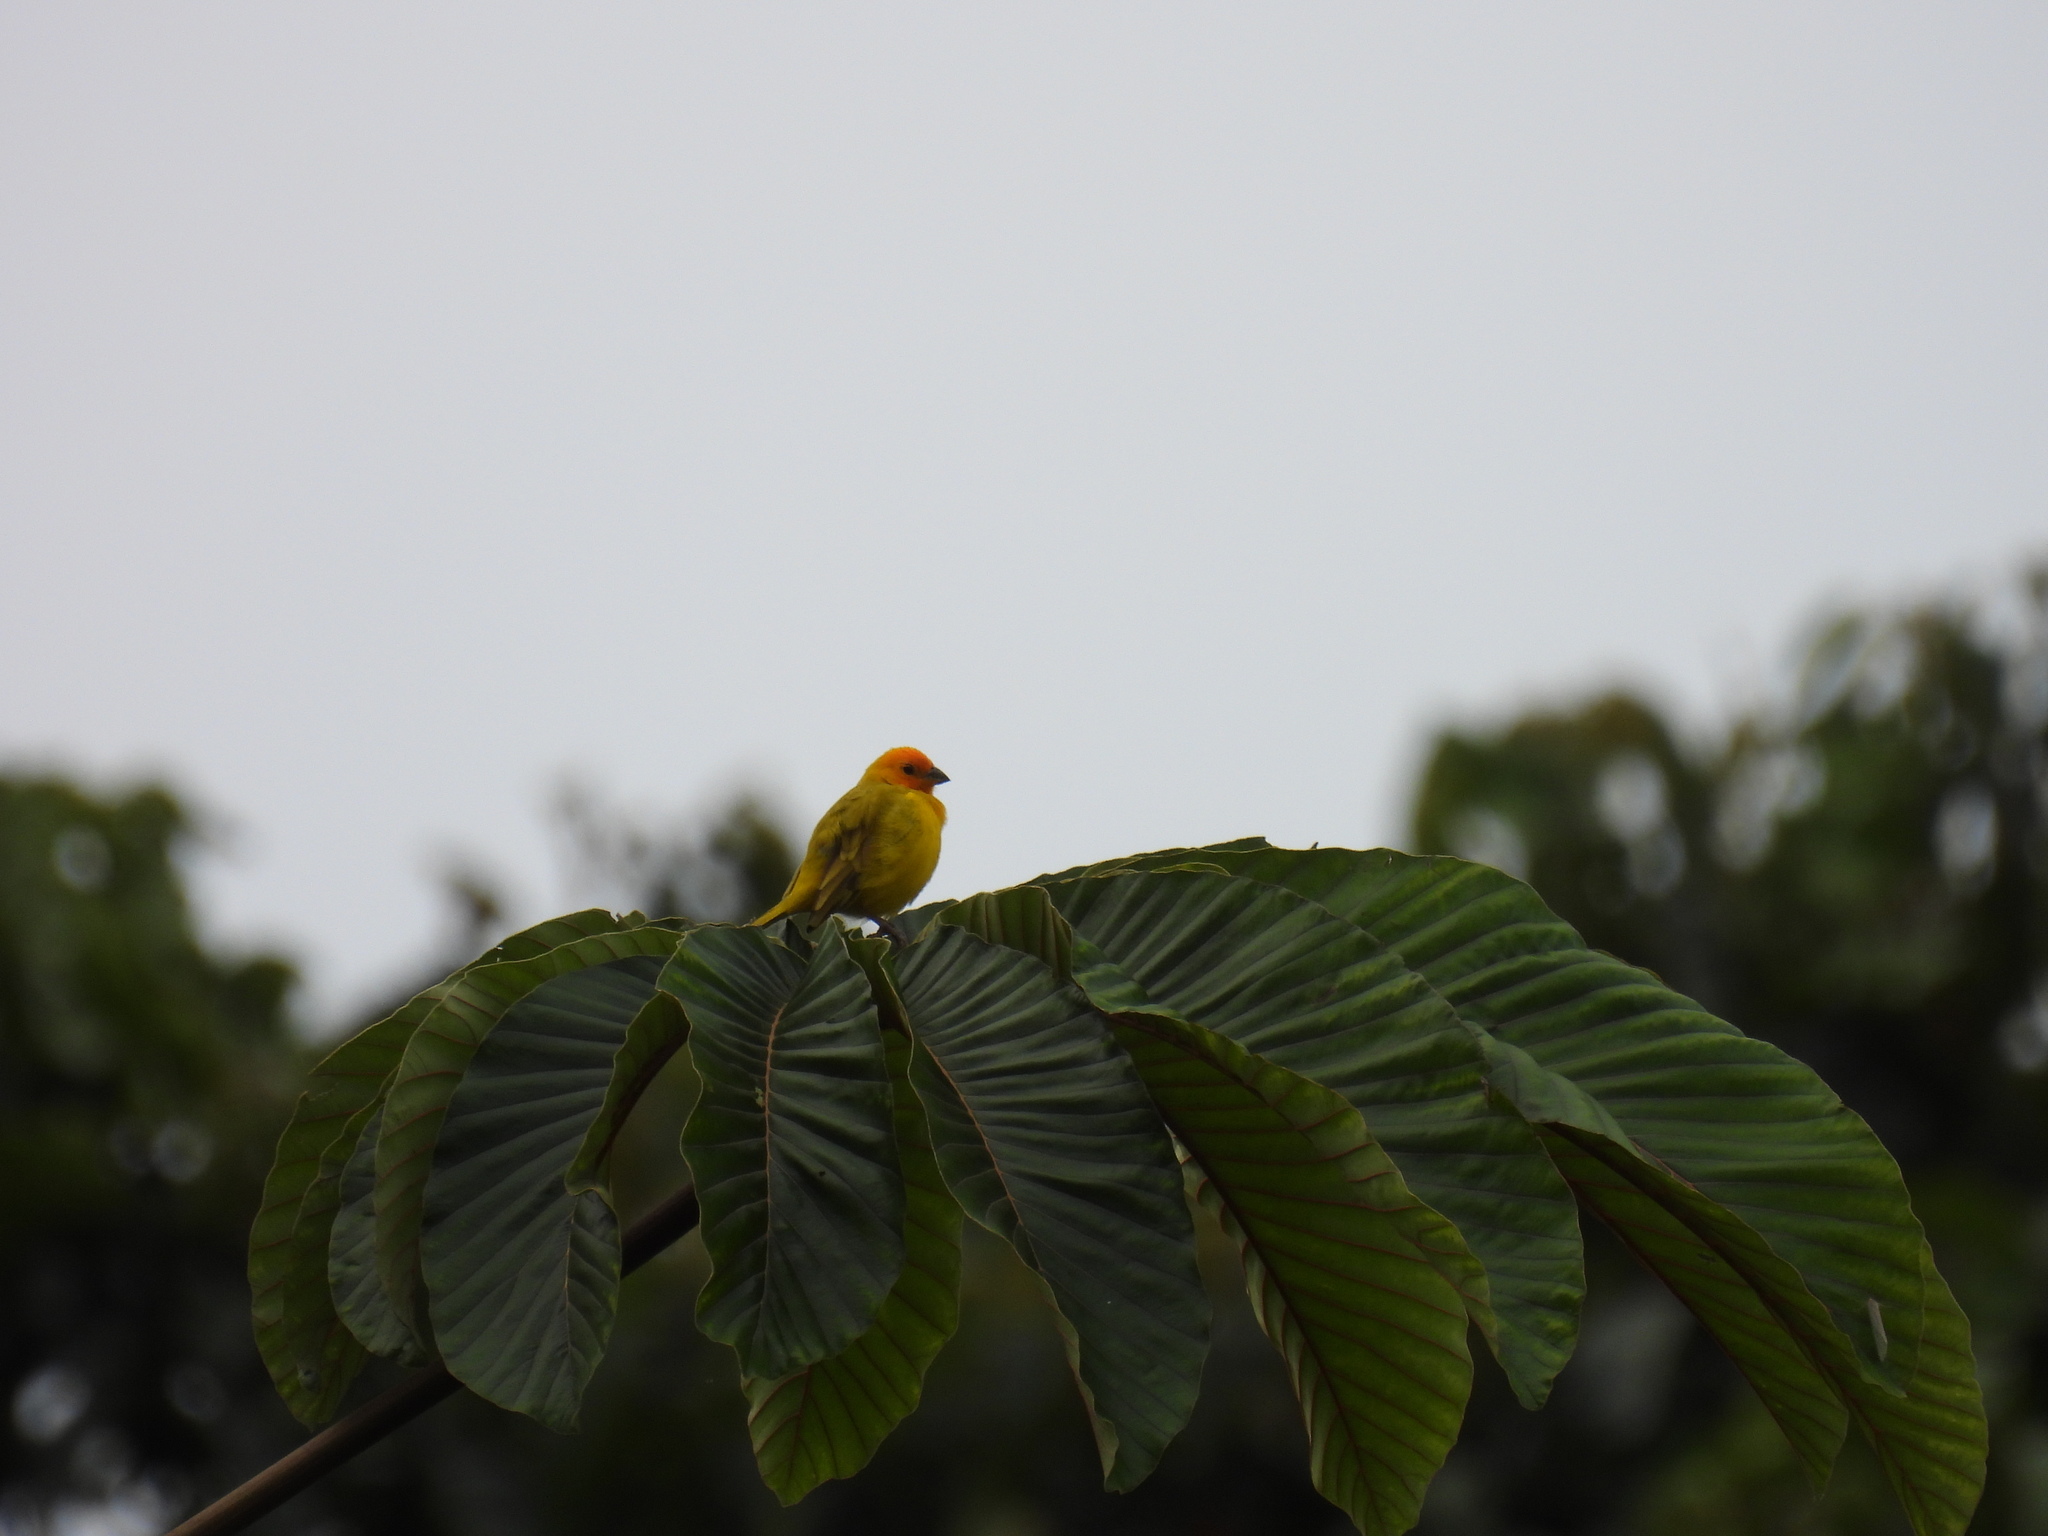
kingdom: Animalia
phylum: Chordata
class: Aves
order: Passeriformes
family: Thraupidae
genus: Sicalis
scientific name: Sicalis flaveola
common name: Saffron finch
